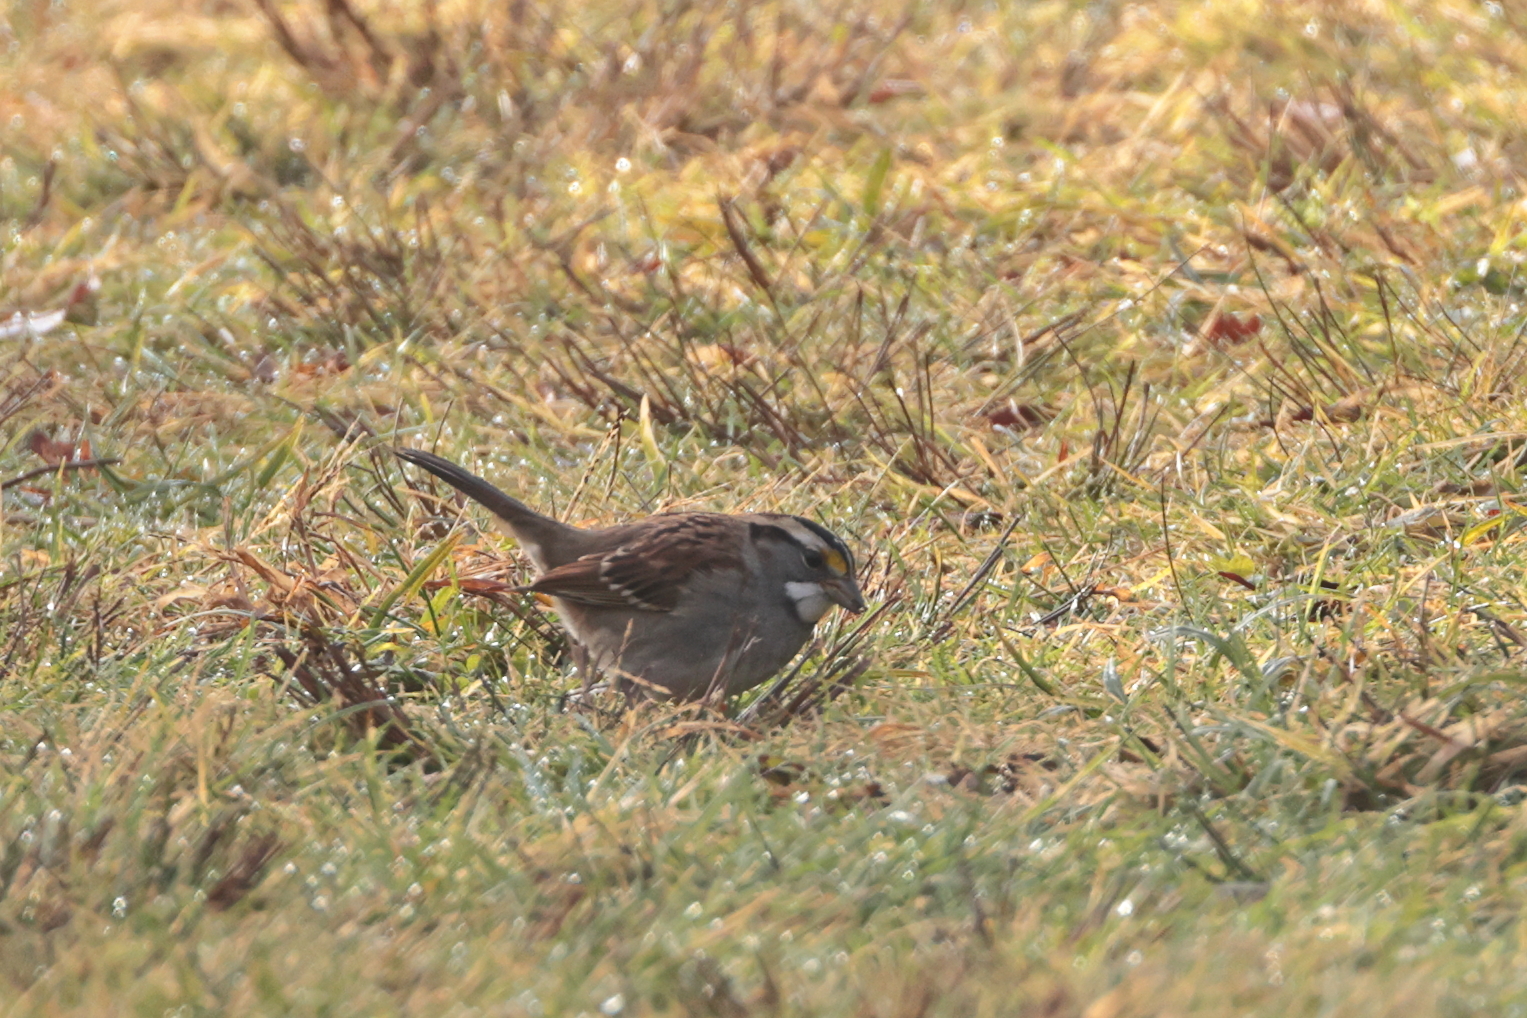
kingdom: Animalia
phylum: Chordata
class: Aves
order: Passeriformes
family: Passerellidae
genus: Zonotrichia
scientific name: Zonotrichia albicollis
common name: White-throated sparrow
